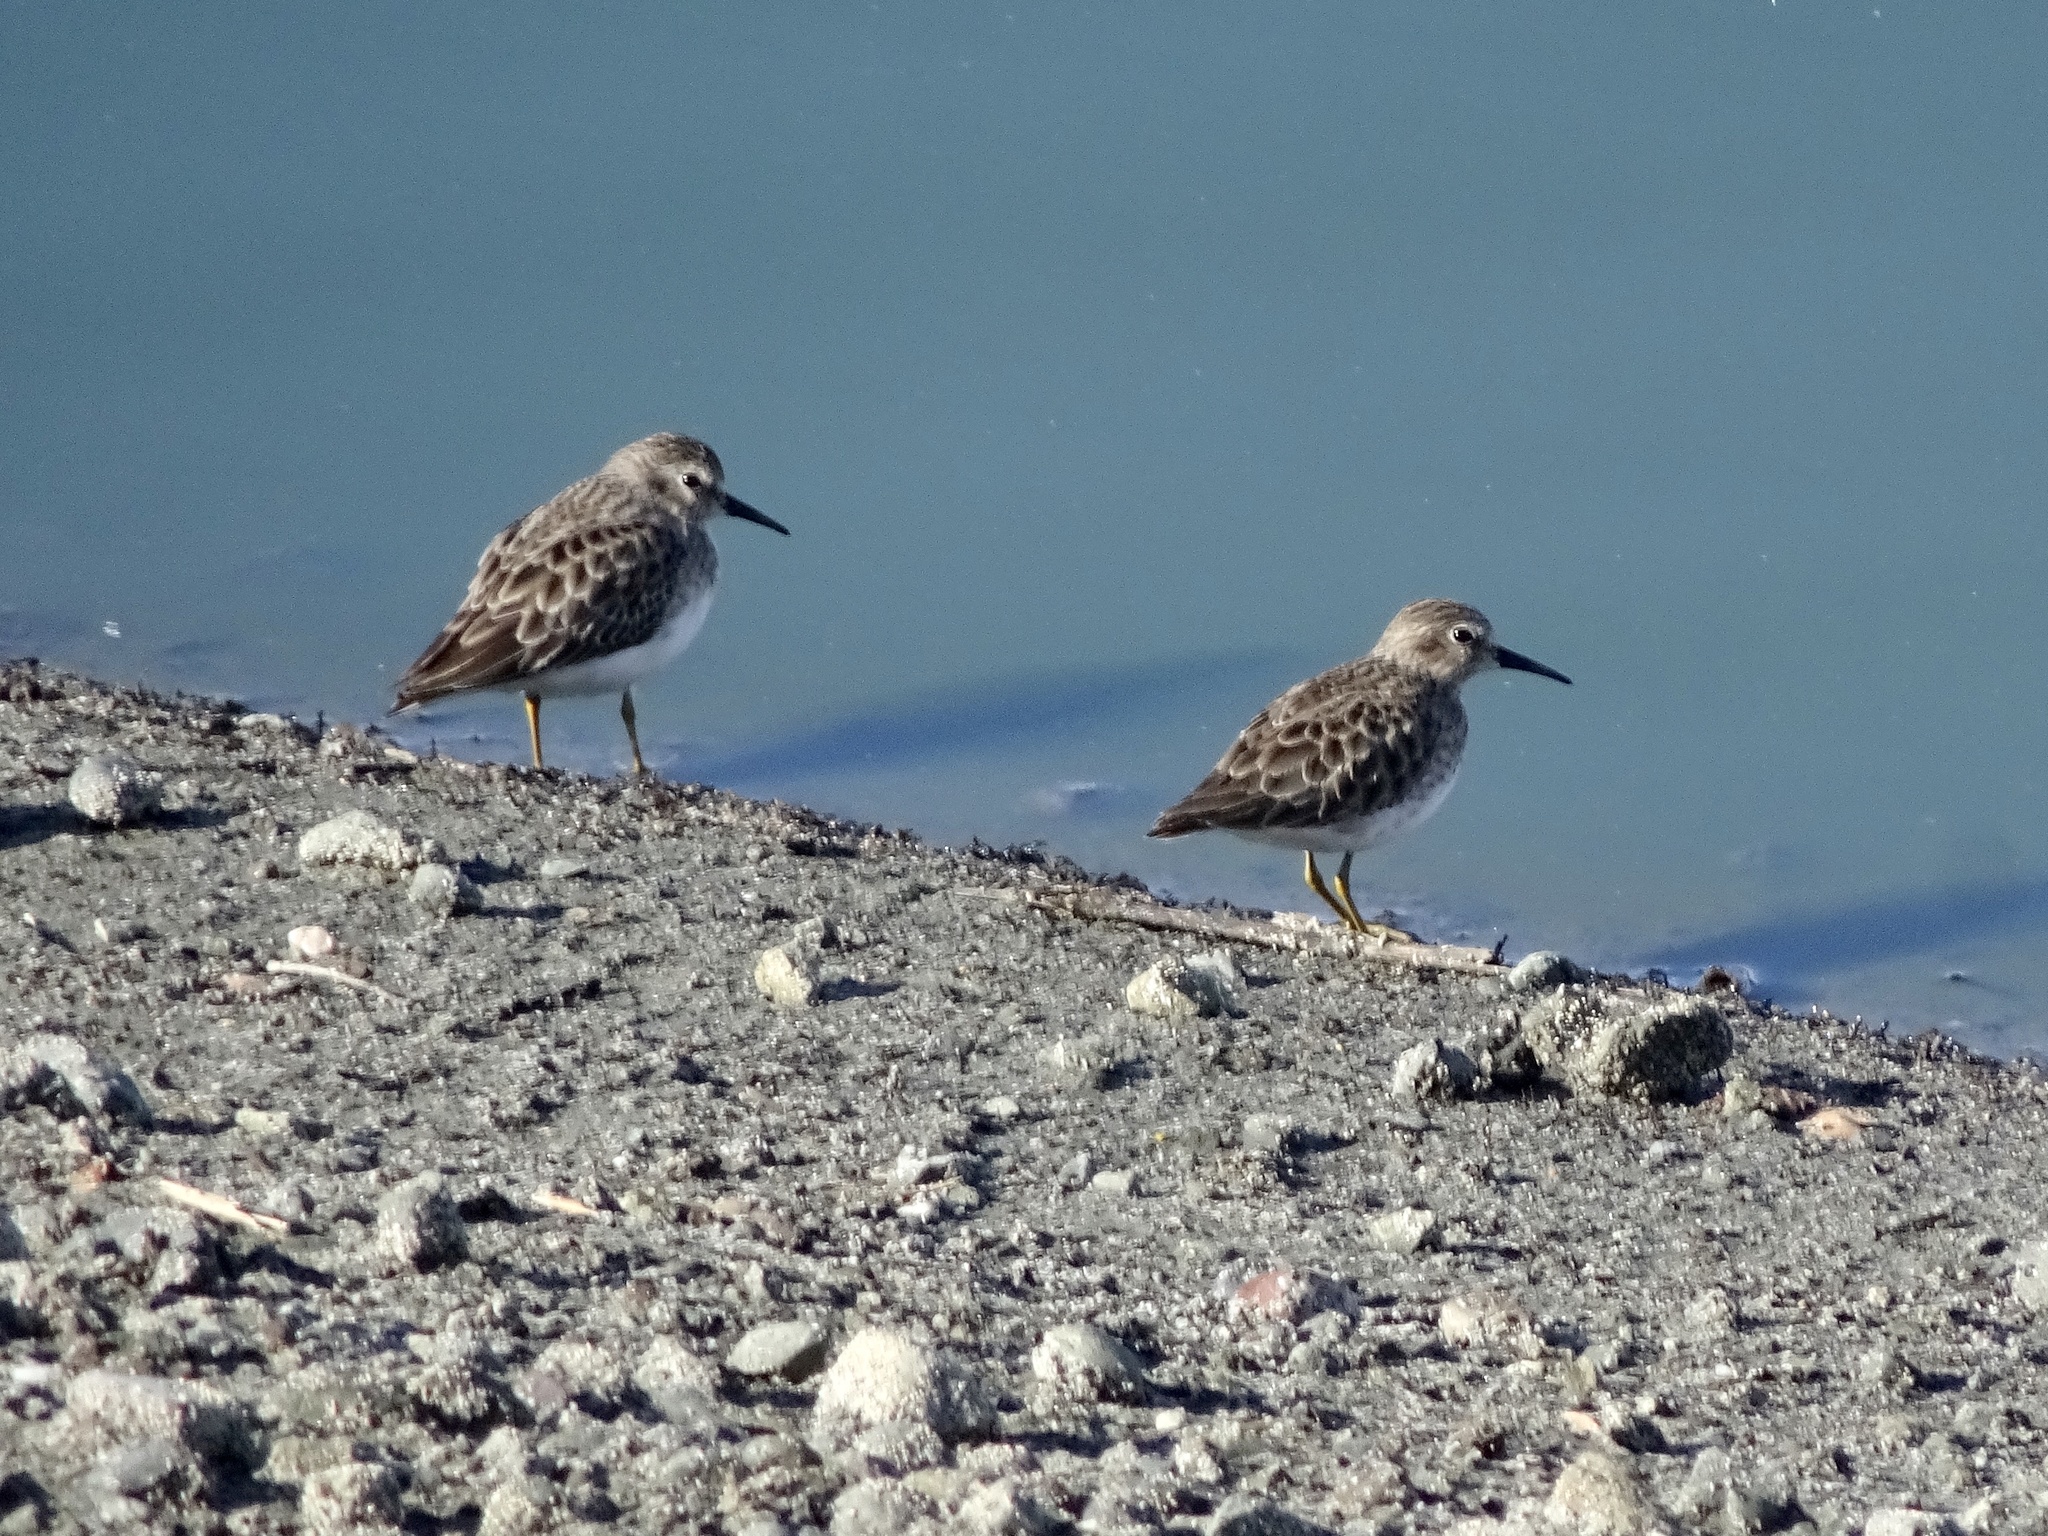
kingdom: Animalia
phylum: Chordata
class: Aves
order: Charadriiformes
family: Scolopacidae
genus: Calidris
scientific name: Calidris minutilla
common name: Least sandpiper
